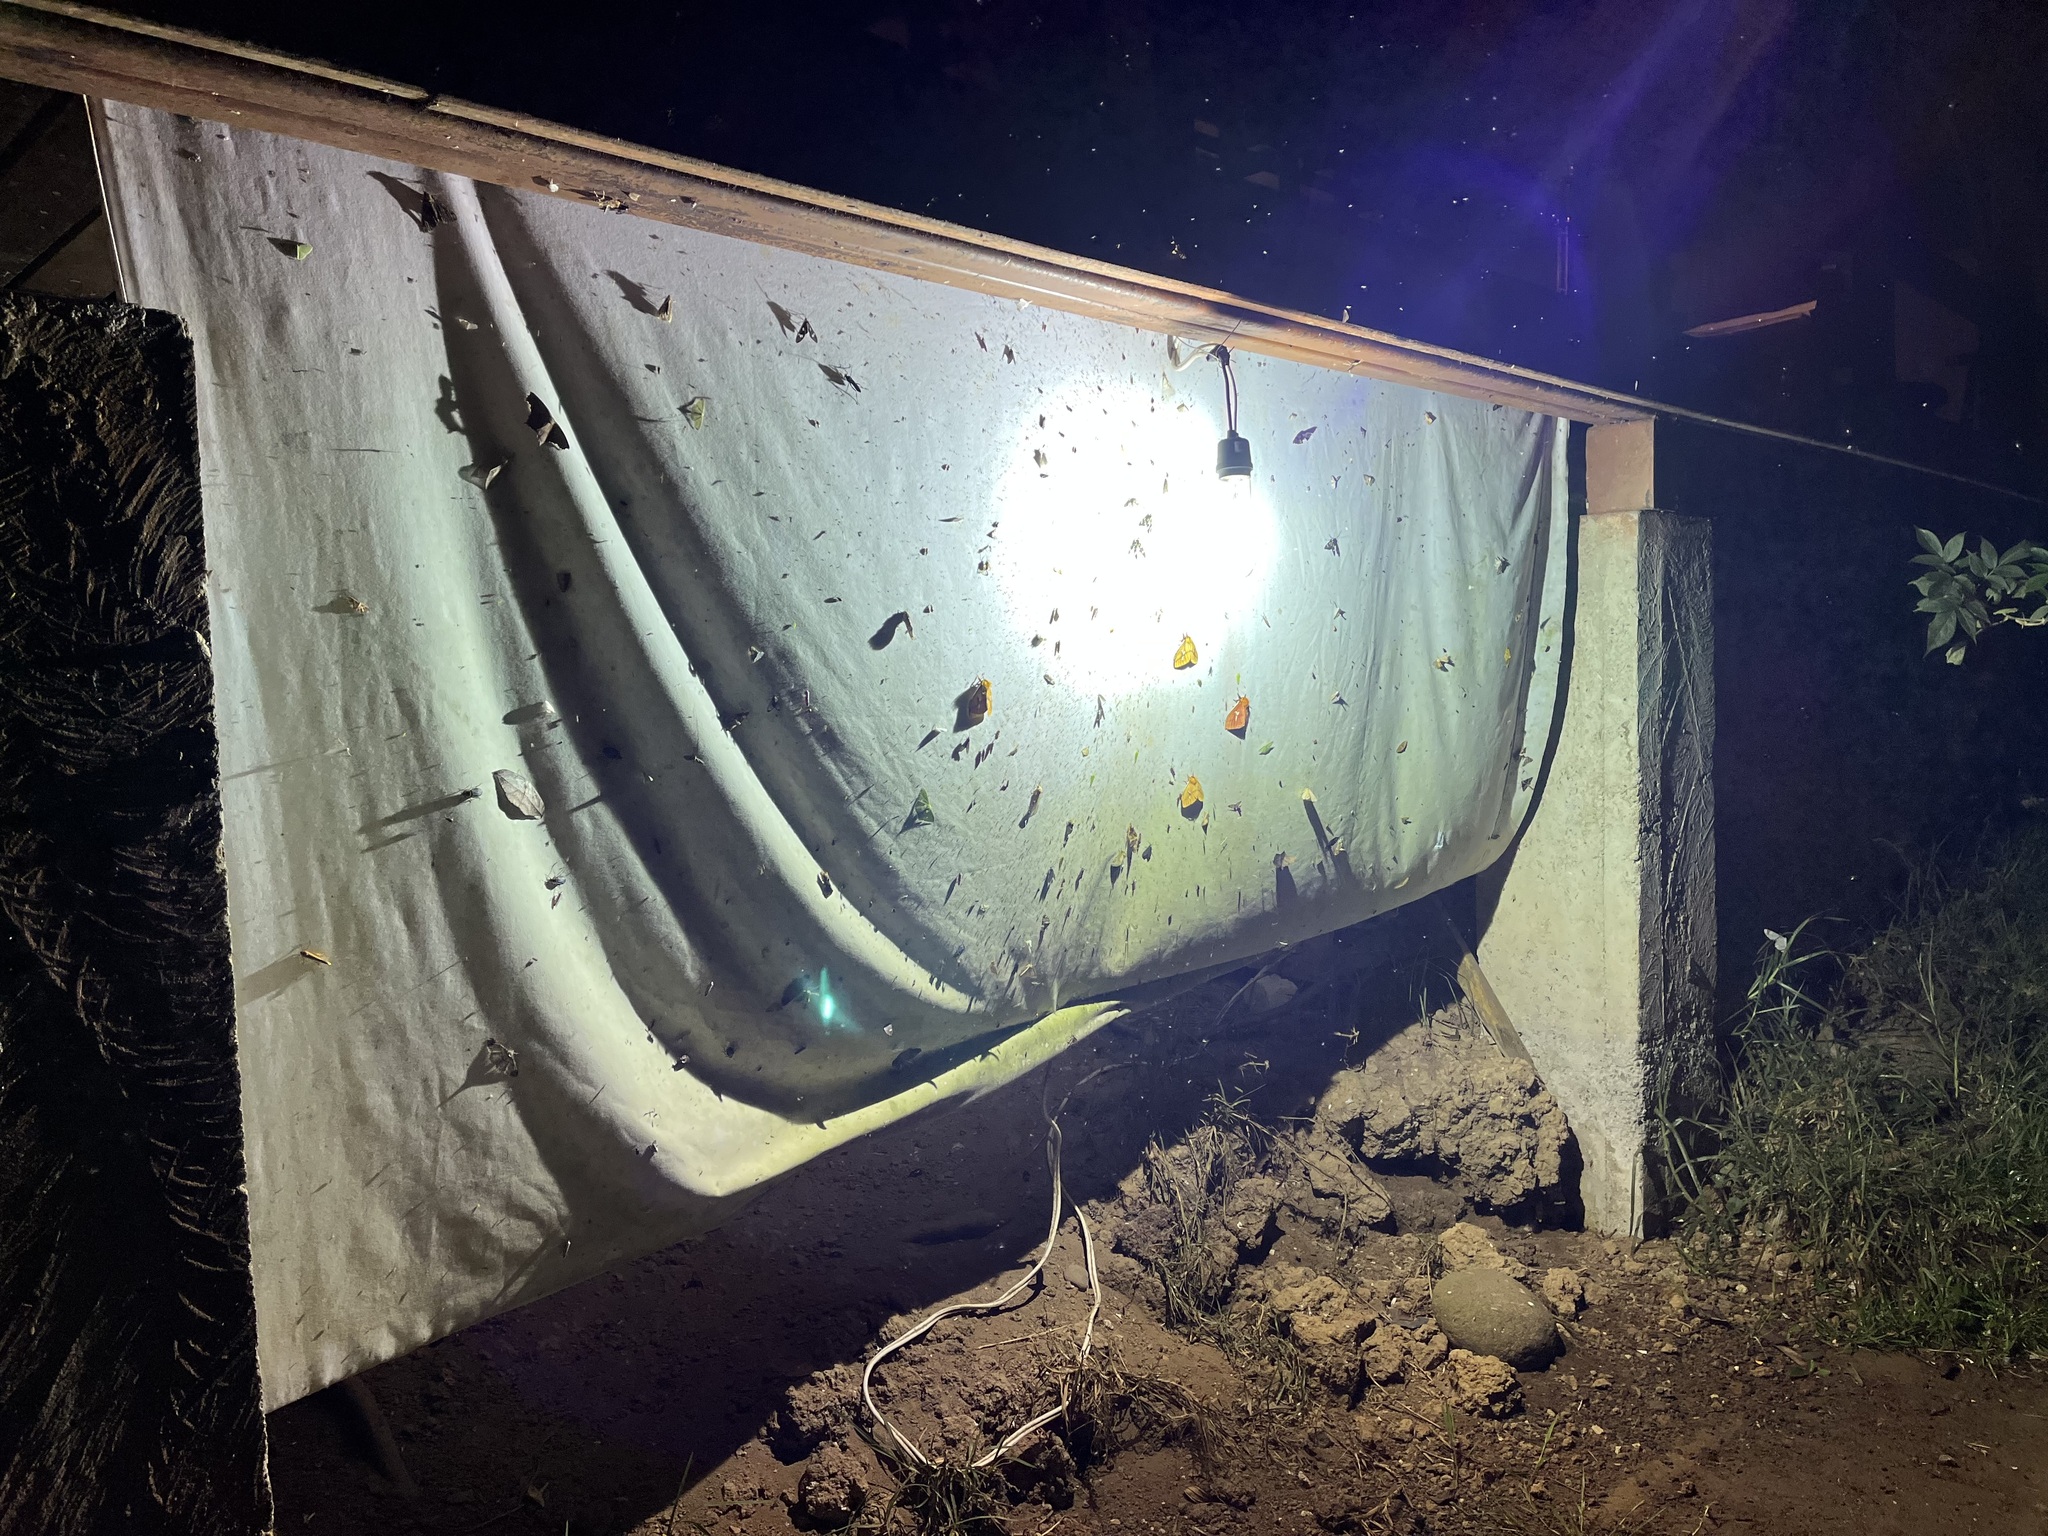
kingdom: Animalia
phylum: Chordata
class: Aves
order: Passeriformes
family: Tyrannidae
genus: Pyrrhomyias
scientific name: Pyrrhomyias cinnamomeus
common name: Cinnamon flycatcher
